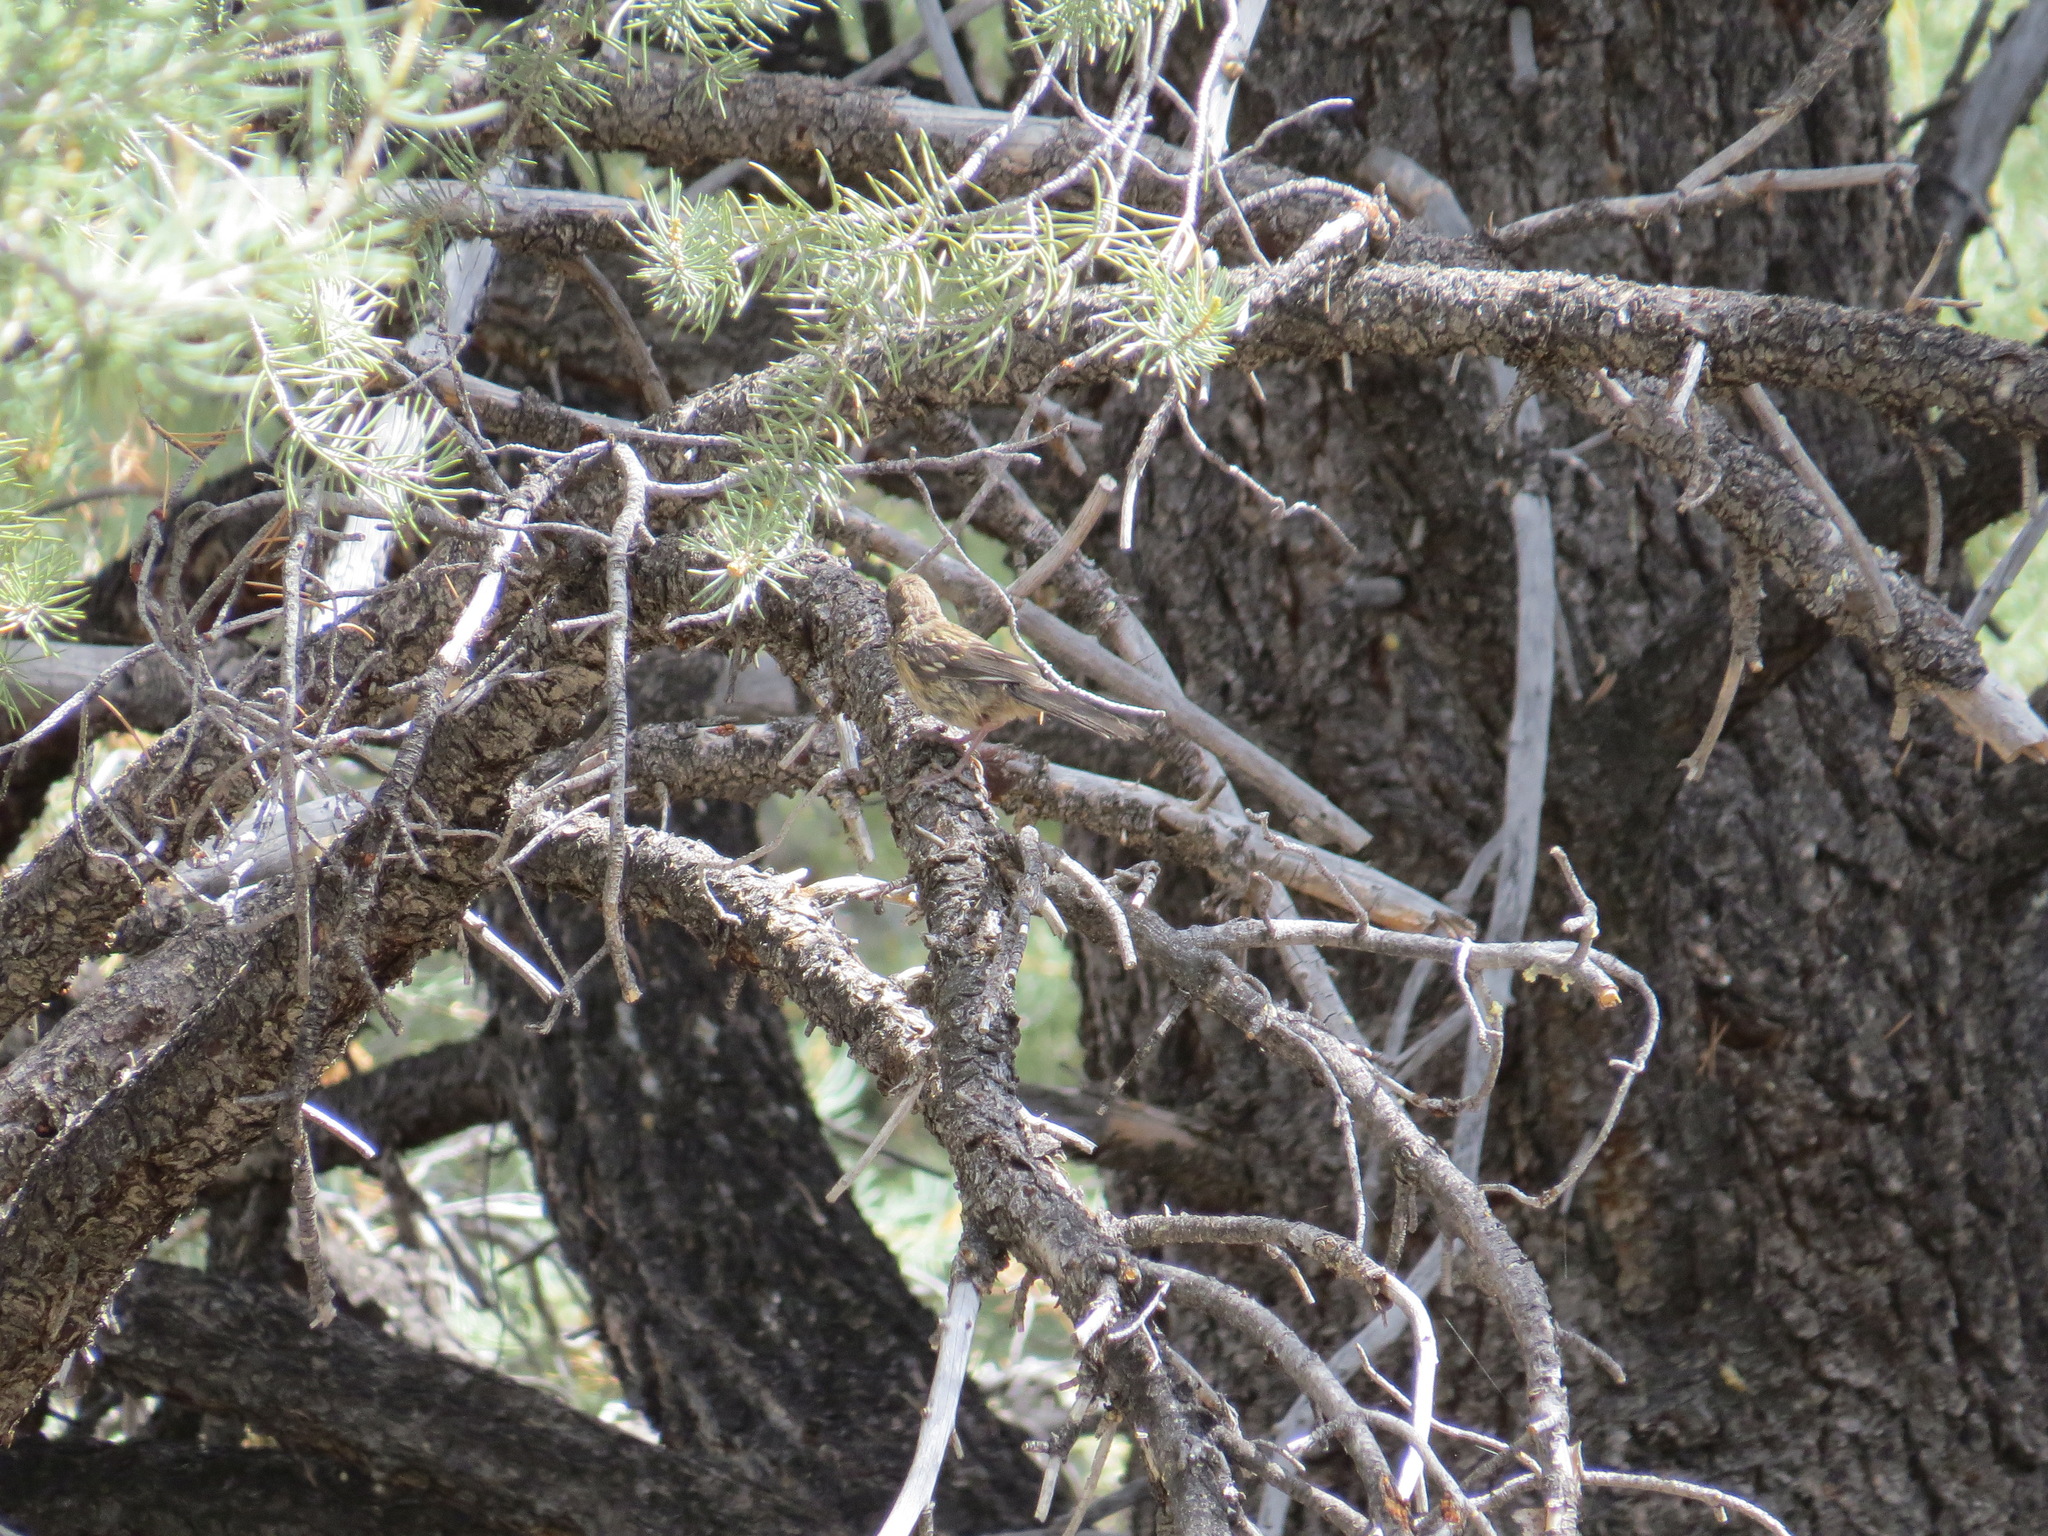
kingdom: Animalia
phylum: Chordata
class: Aves
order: Passeriformes
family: Passerellidae
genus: Pipilo
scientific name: Pipilo maculatus
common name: Spotted towhee
